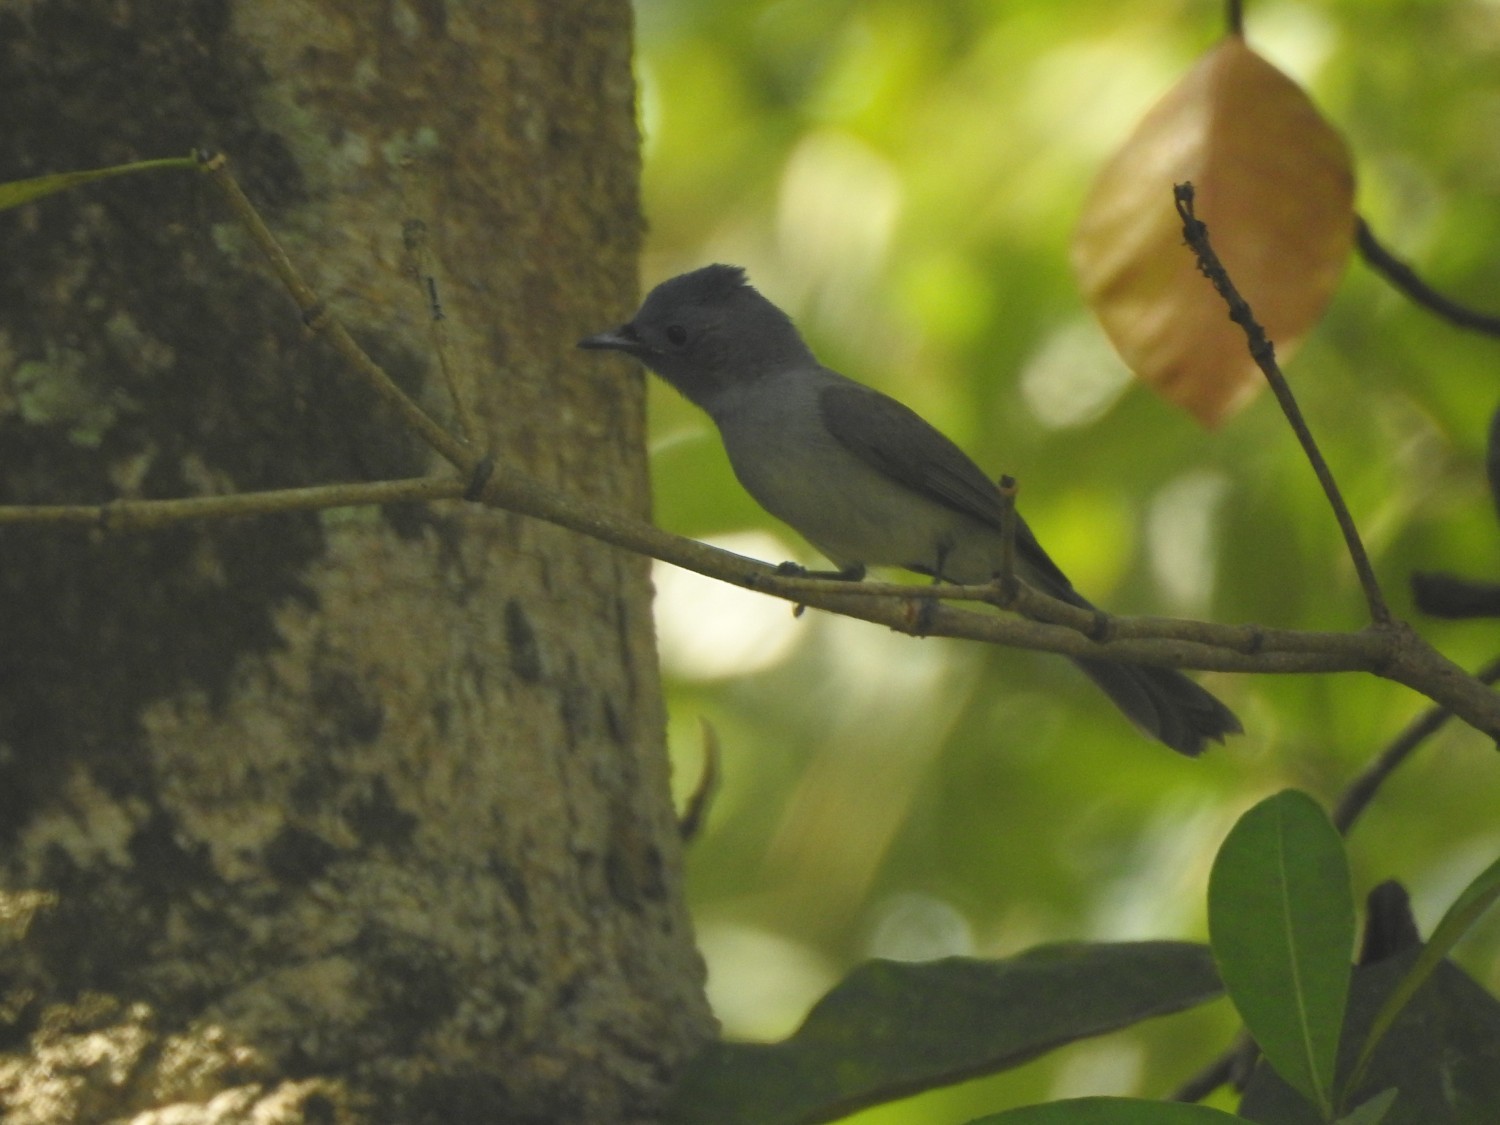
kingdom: Animalia
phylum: Chordata
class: Aves
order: Passeriformes
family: Monarchidae
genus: Hypothymis
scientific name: Hypothymis azurea
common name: Black-naped monarch
